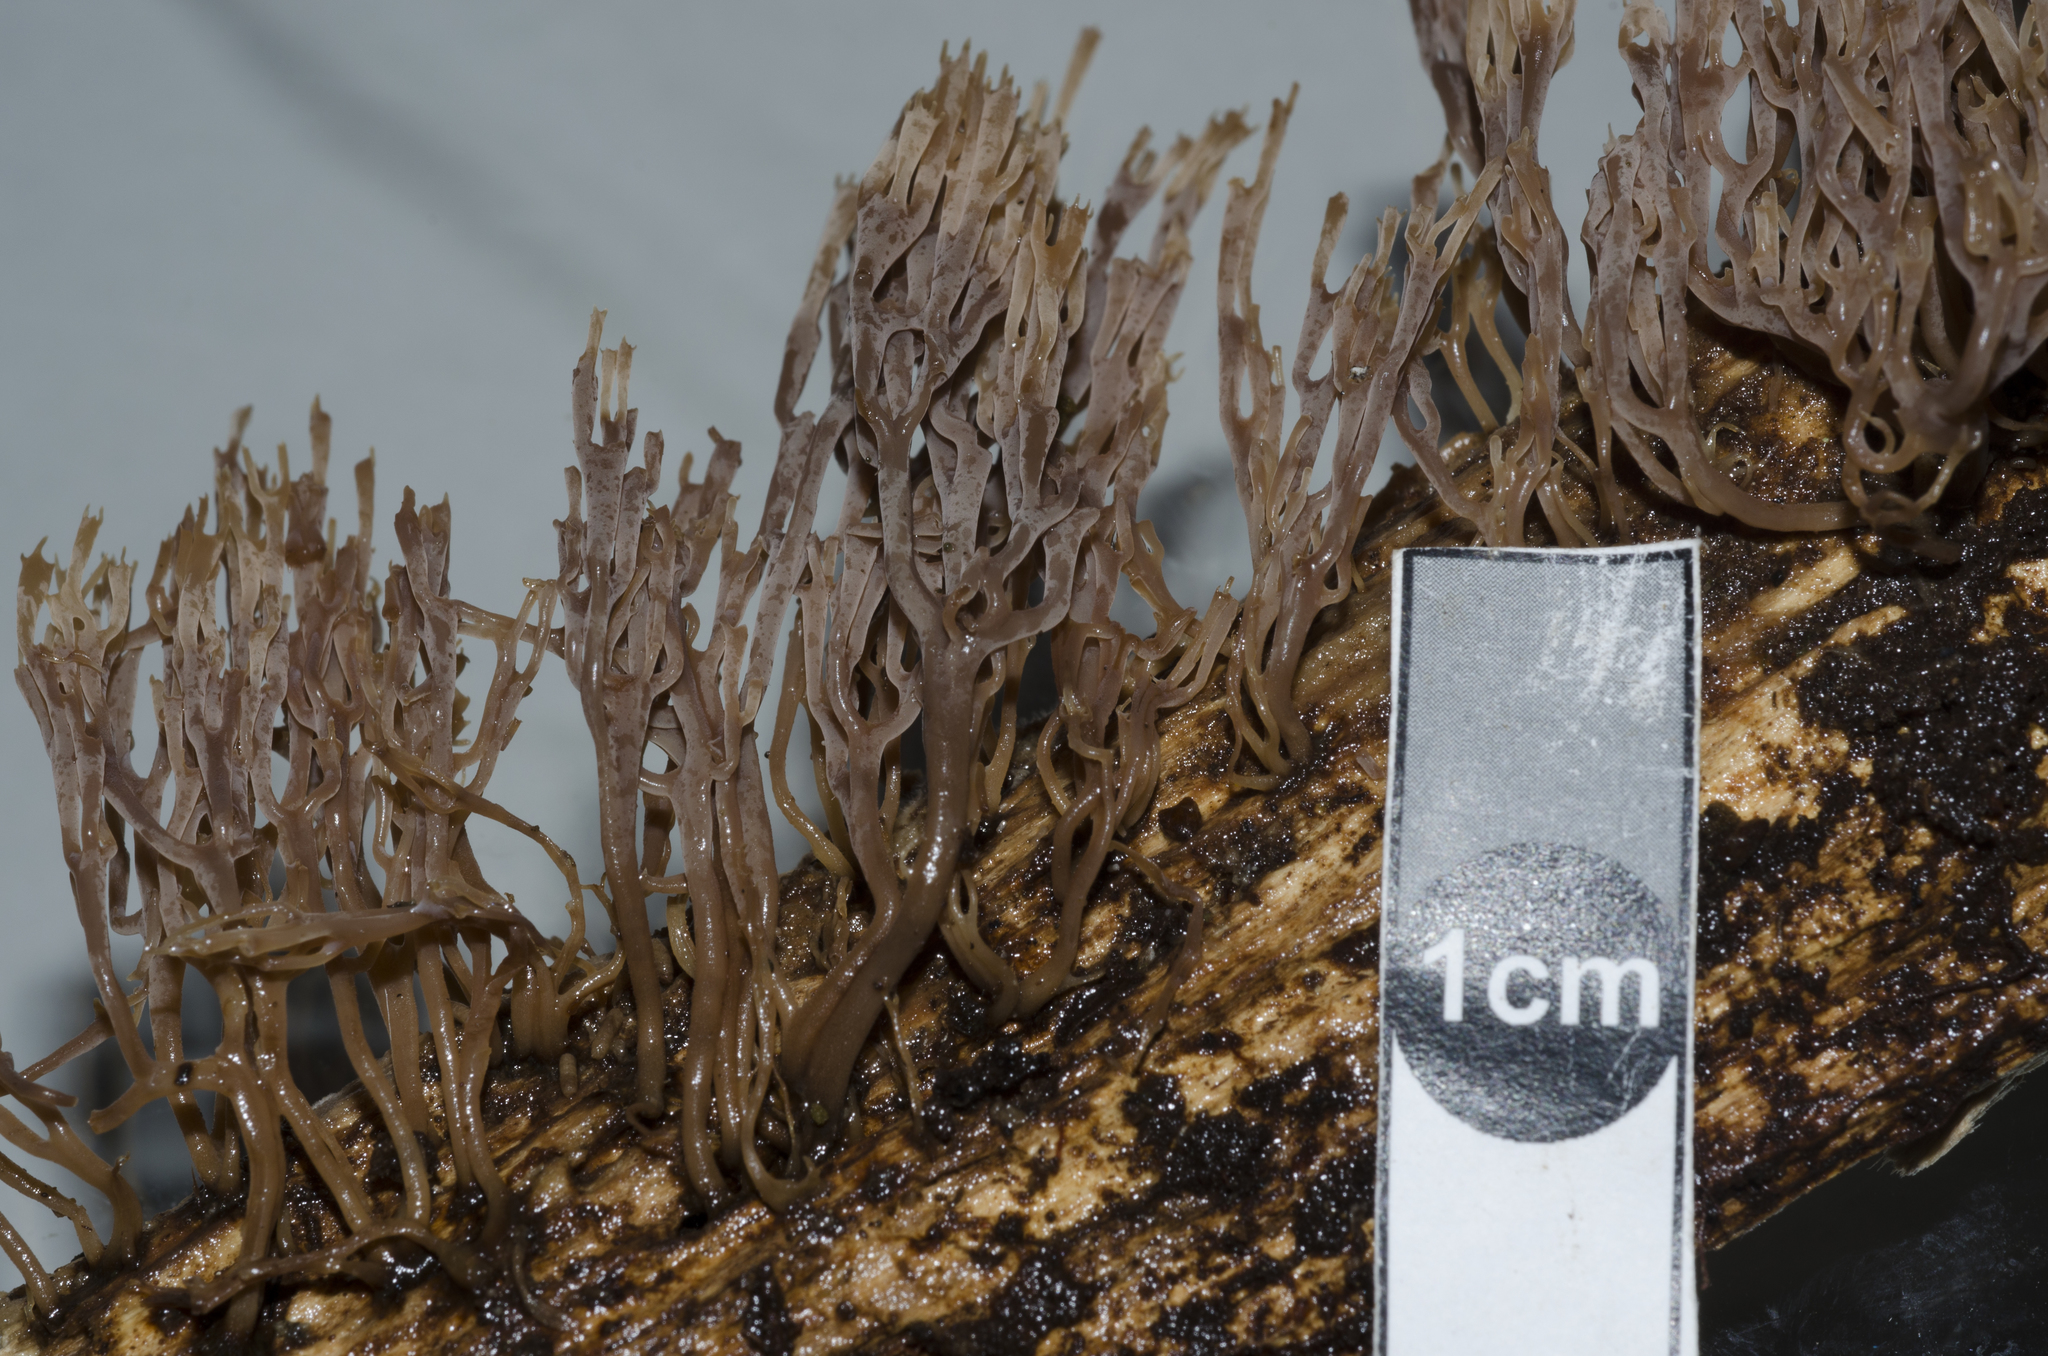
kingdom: Fungi
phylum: Basidiomycota
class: Agaricomycetes
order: Russulales
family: Auriscalpiaceae
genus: Artomyces
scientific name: Artomyces colensoi
